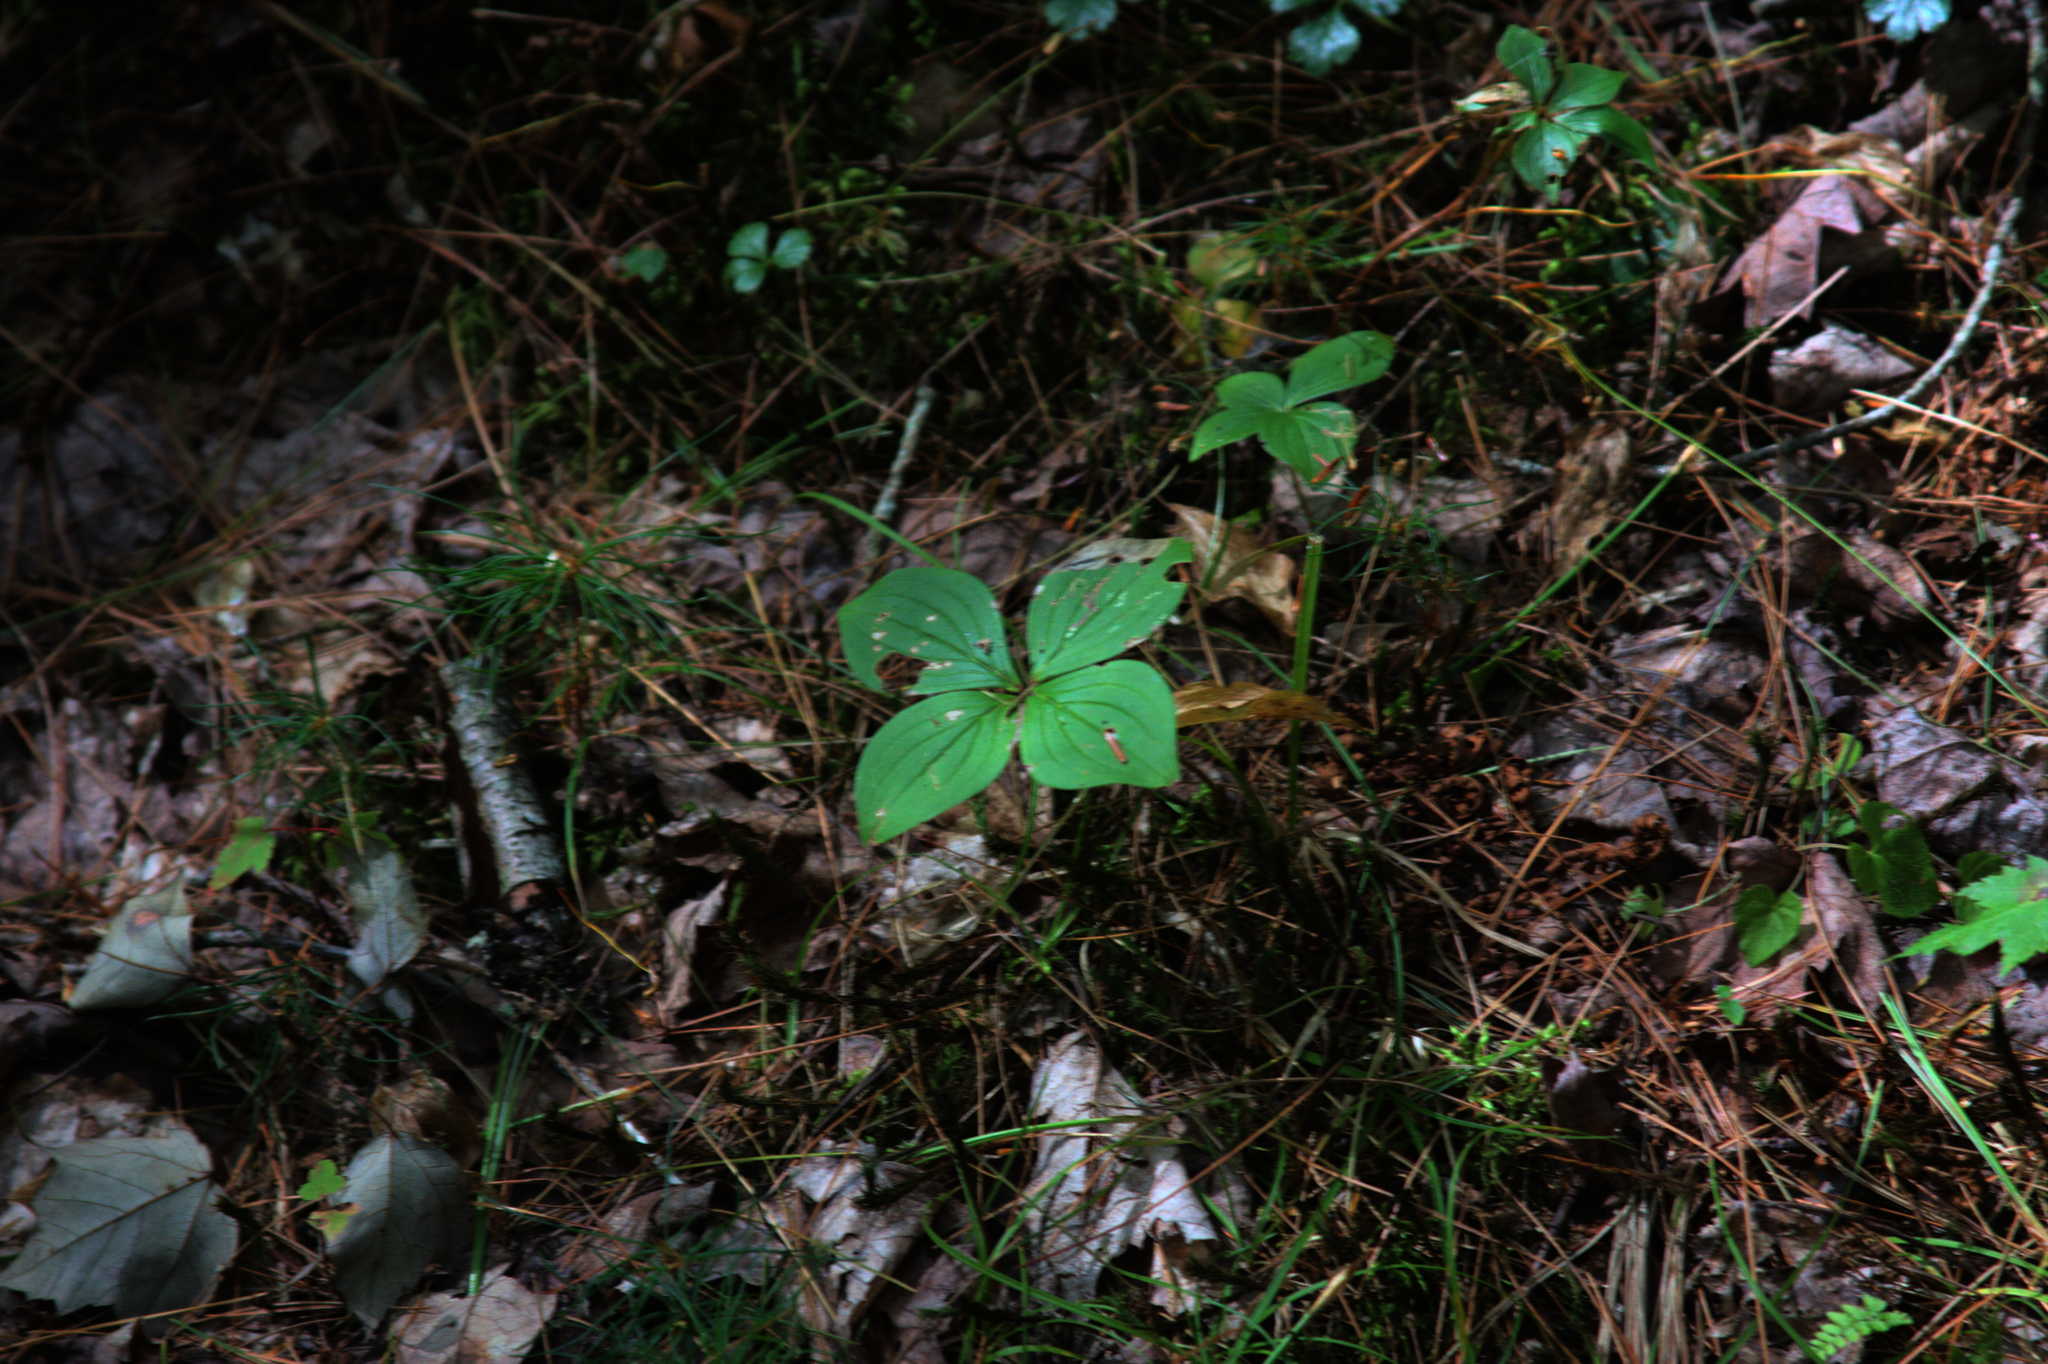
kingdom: Plantae
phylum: Tracheophyta
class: Magnoliopsida
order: Cornales
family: Cornaceae
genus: Cornus
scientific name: Cornus canadensis
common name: Creeping dogwood
